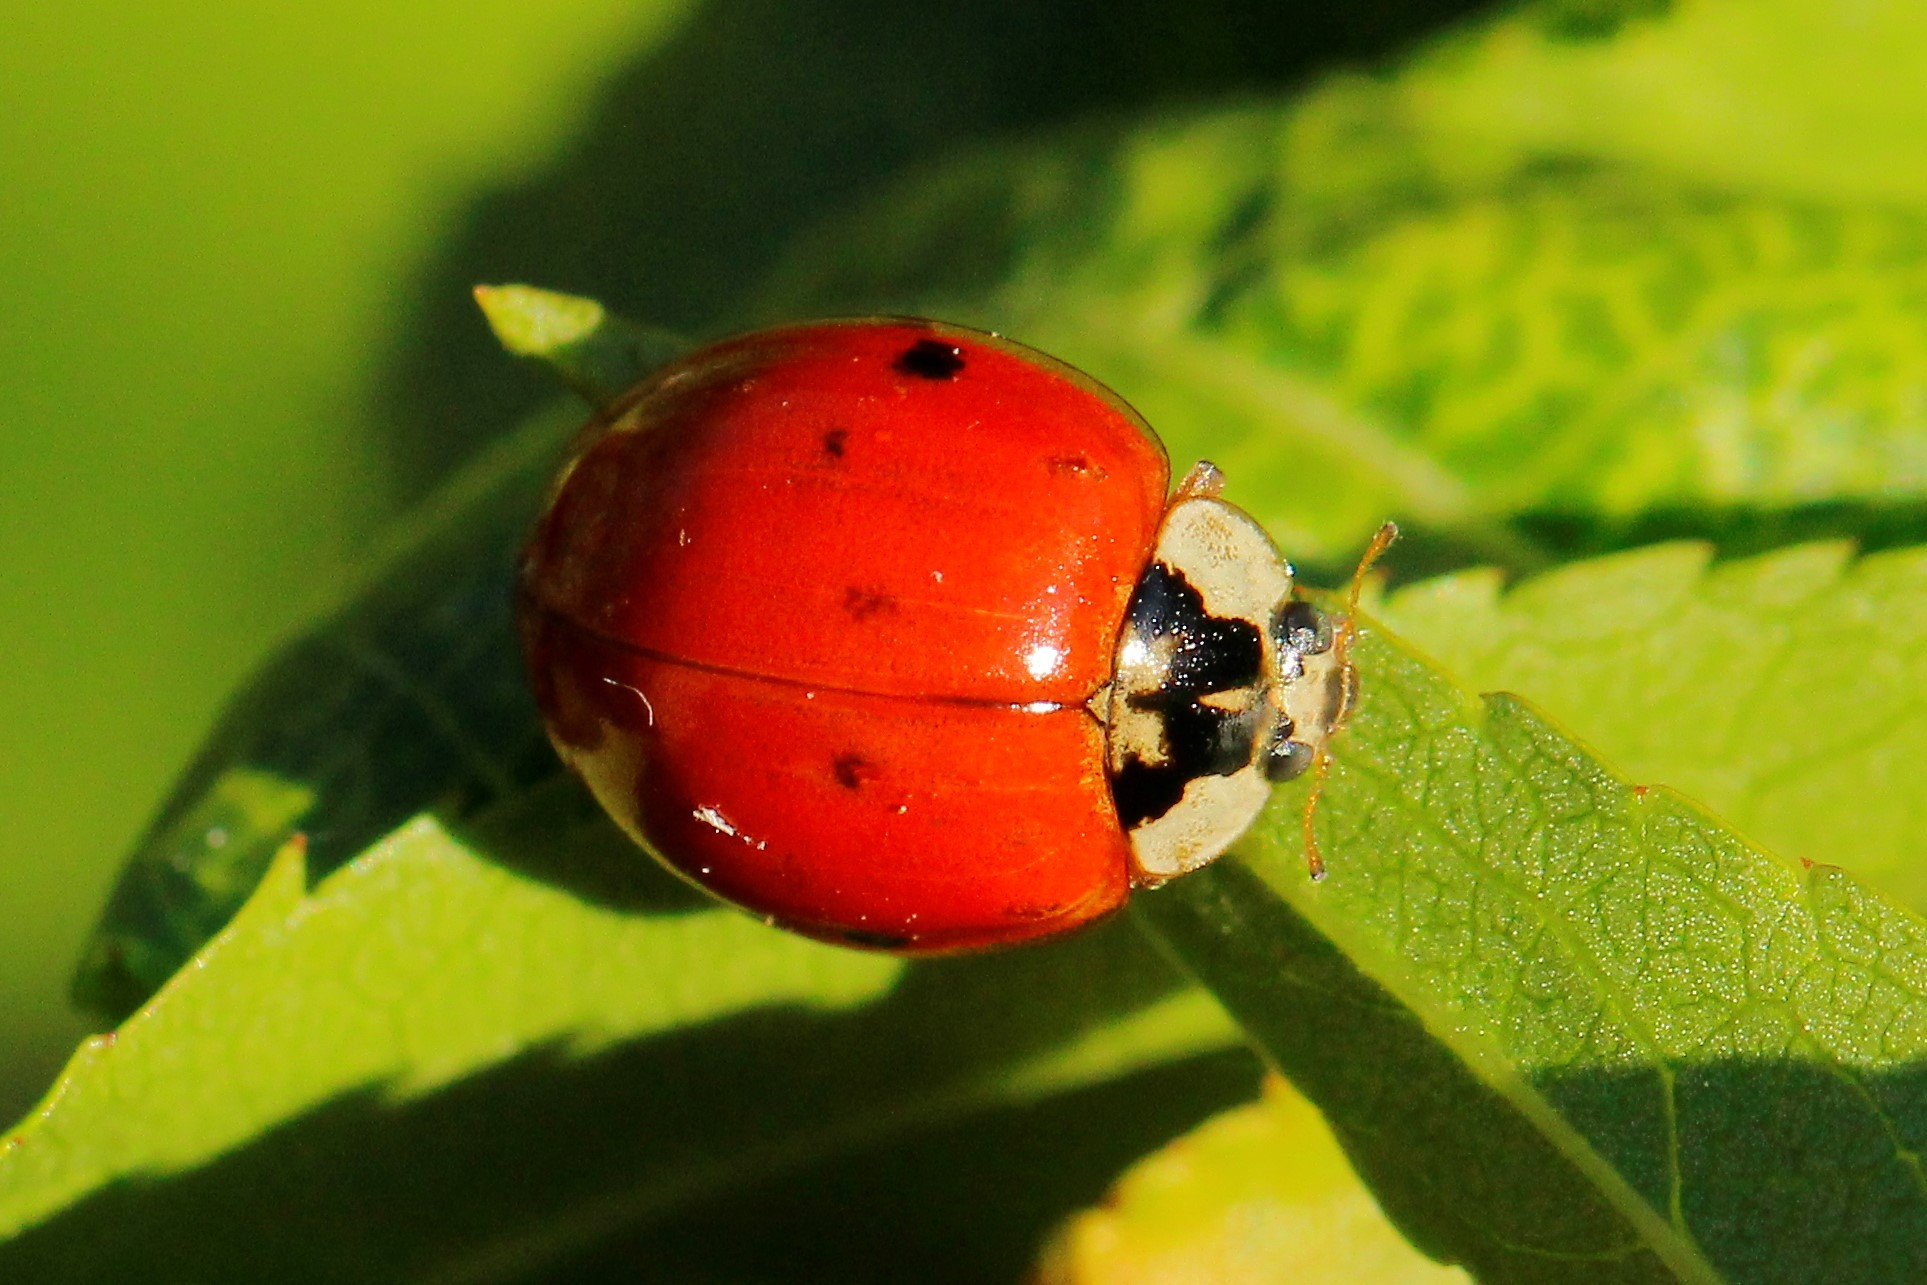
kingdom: Animalia
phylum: Arthropoda
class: Insecta
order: Coleoptera
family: Coccinellidae
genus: Harmonia
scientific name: Harmonia axyridis
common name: Harlequin ladybird
